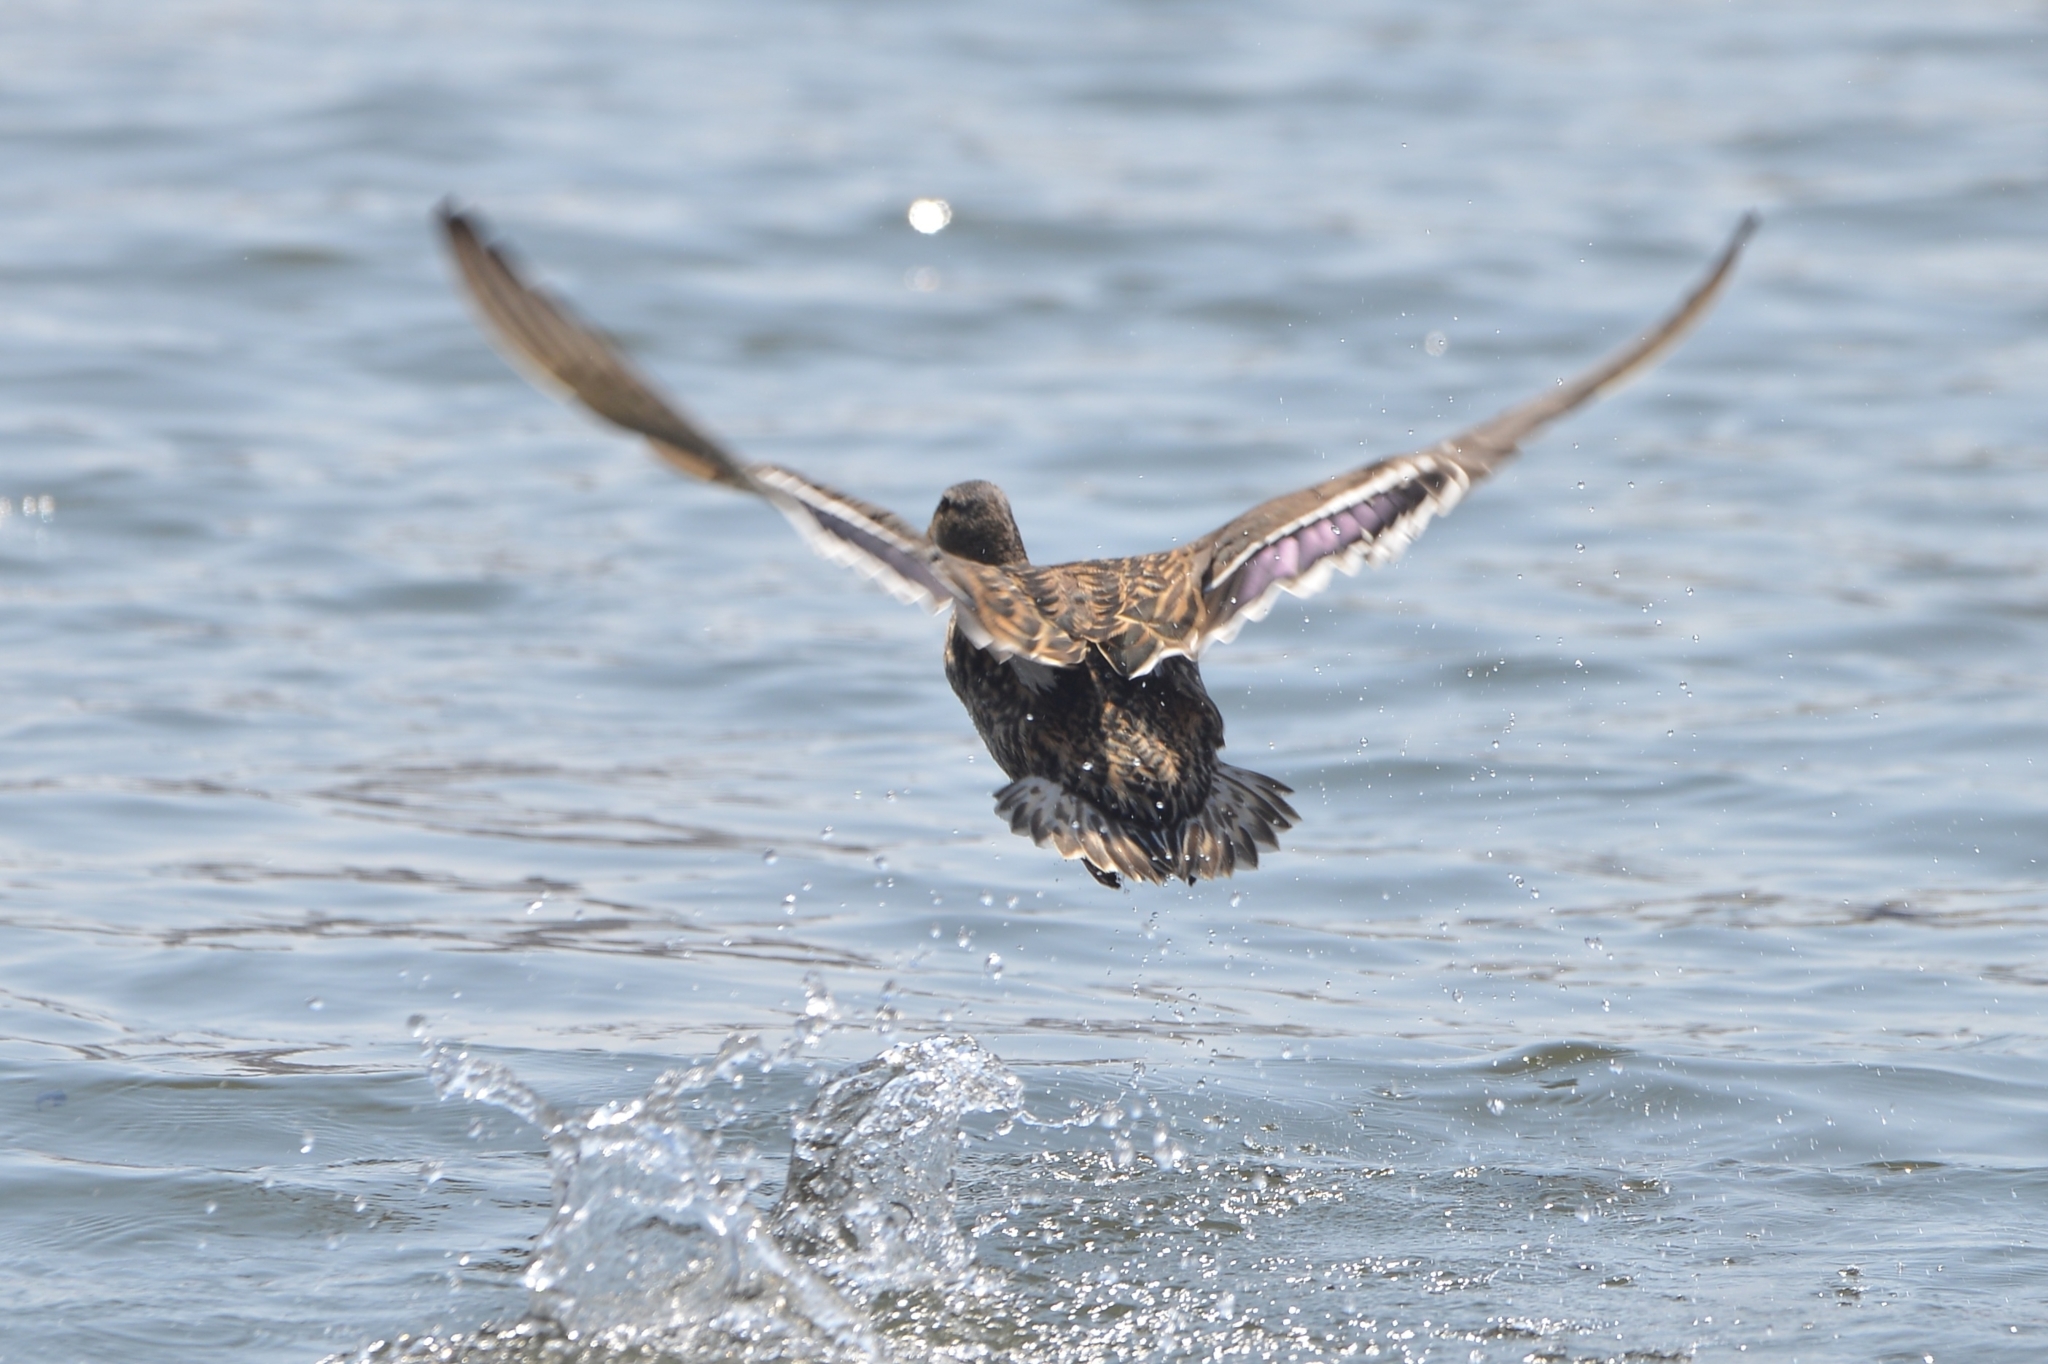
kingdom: Animalia
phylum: Chordata
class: Aves
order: Anseriformes
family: Anatidae
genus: Anas
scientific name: Anas crecca
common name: Eurasian teal
